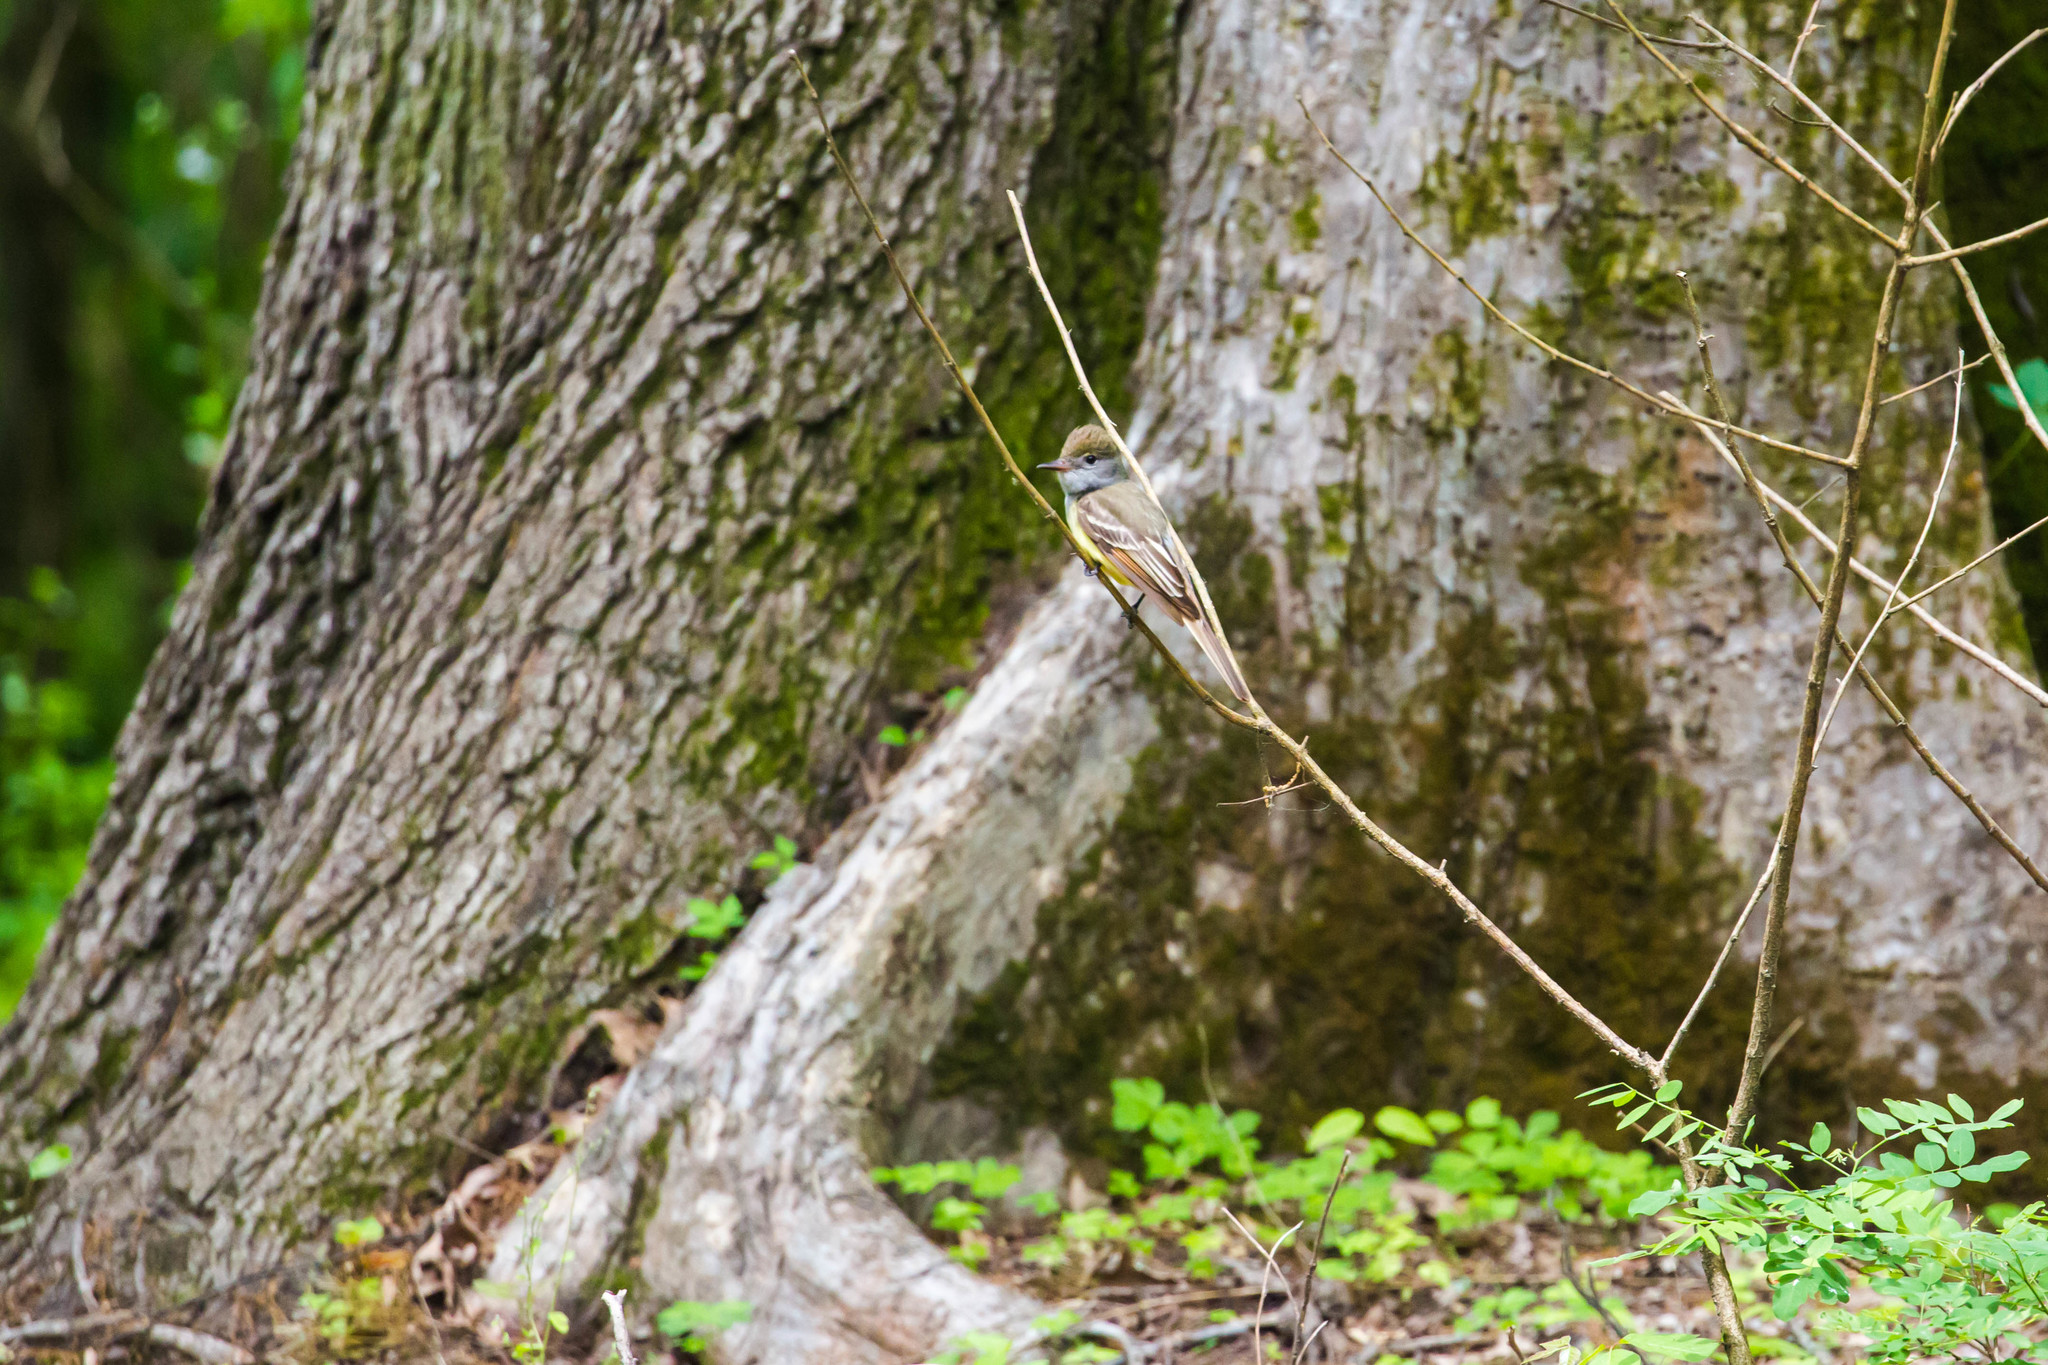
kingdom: Animalia
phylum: Chordata
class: Aves
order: Passeriformes
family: Tyrannidae
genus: Myiarchus
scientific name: Myiarchus crinitus
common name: Great crested flycatcher
